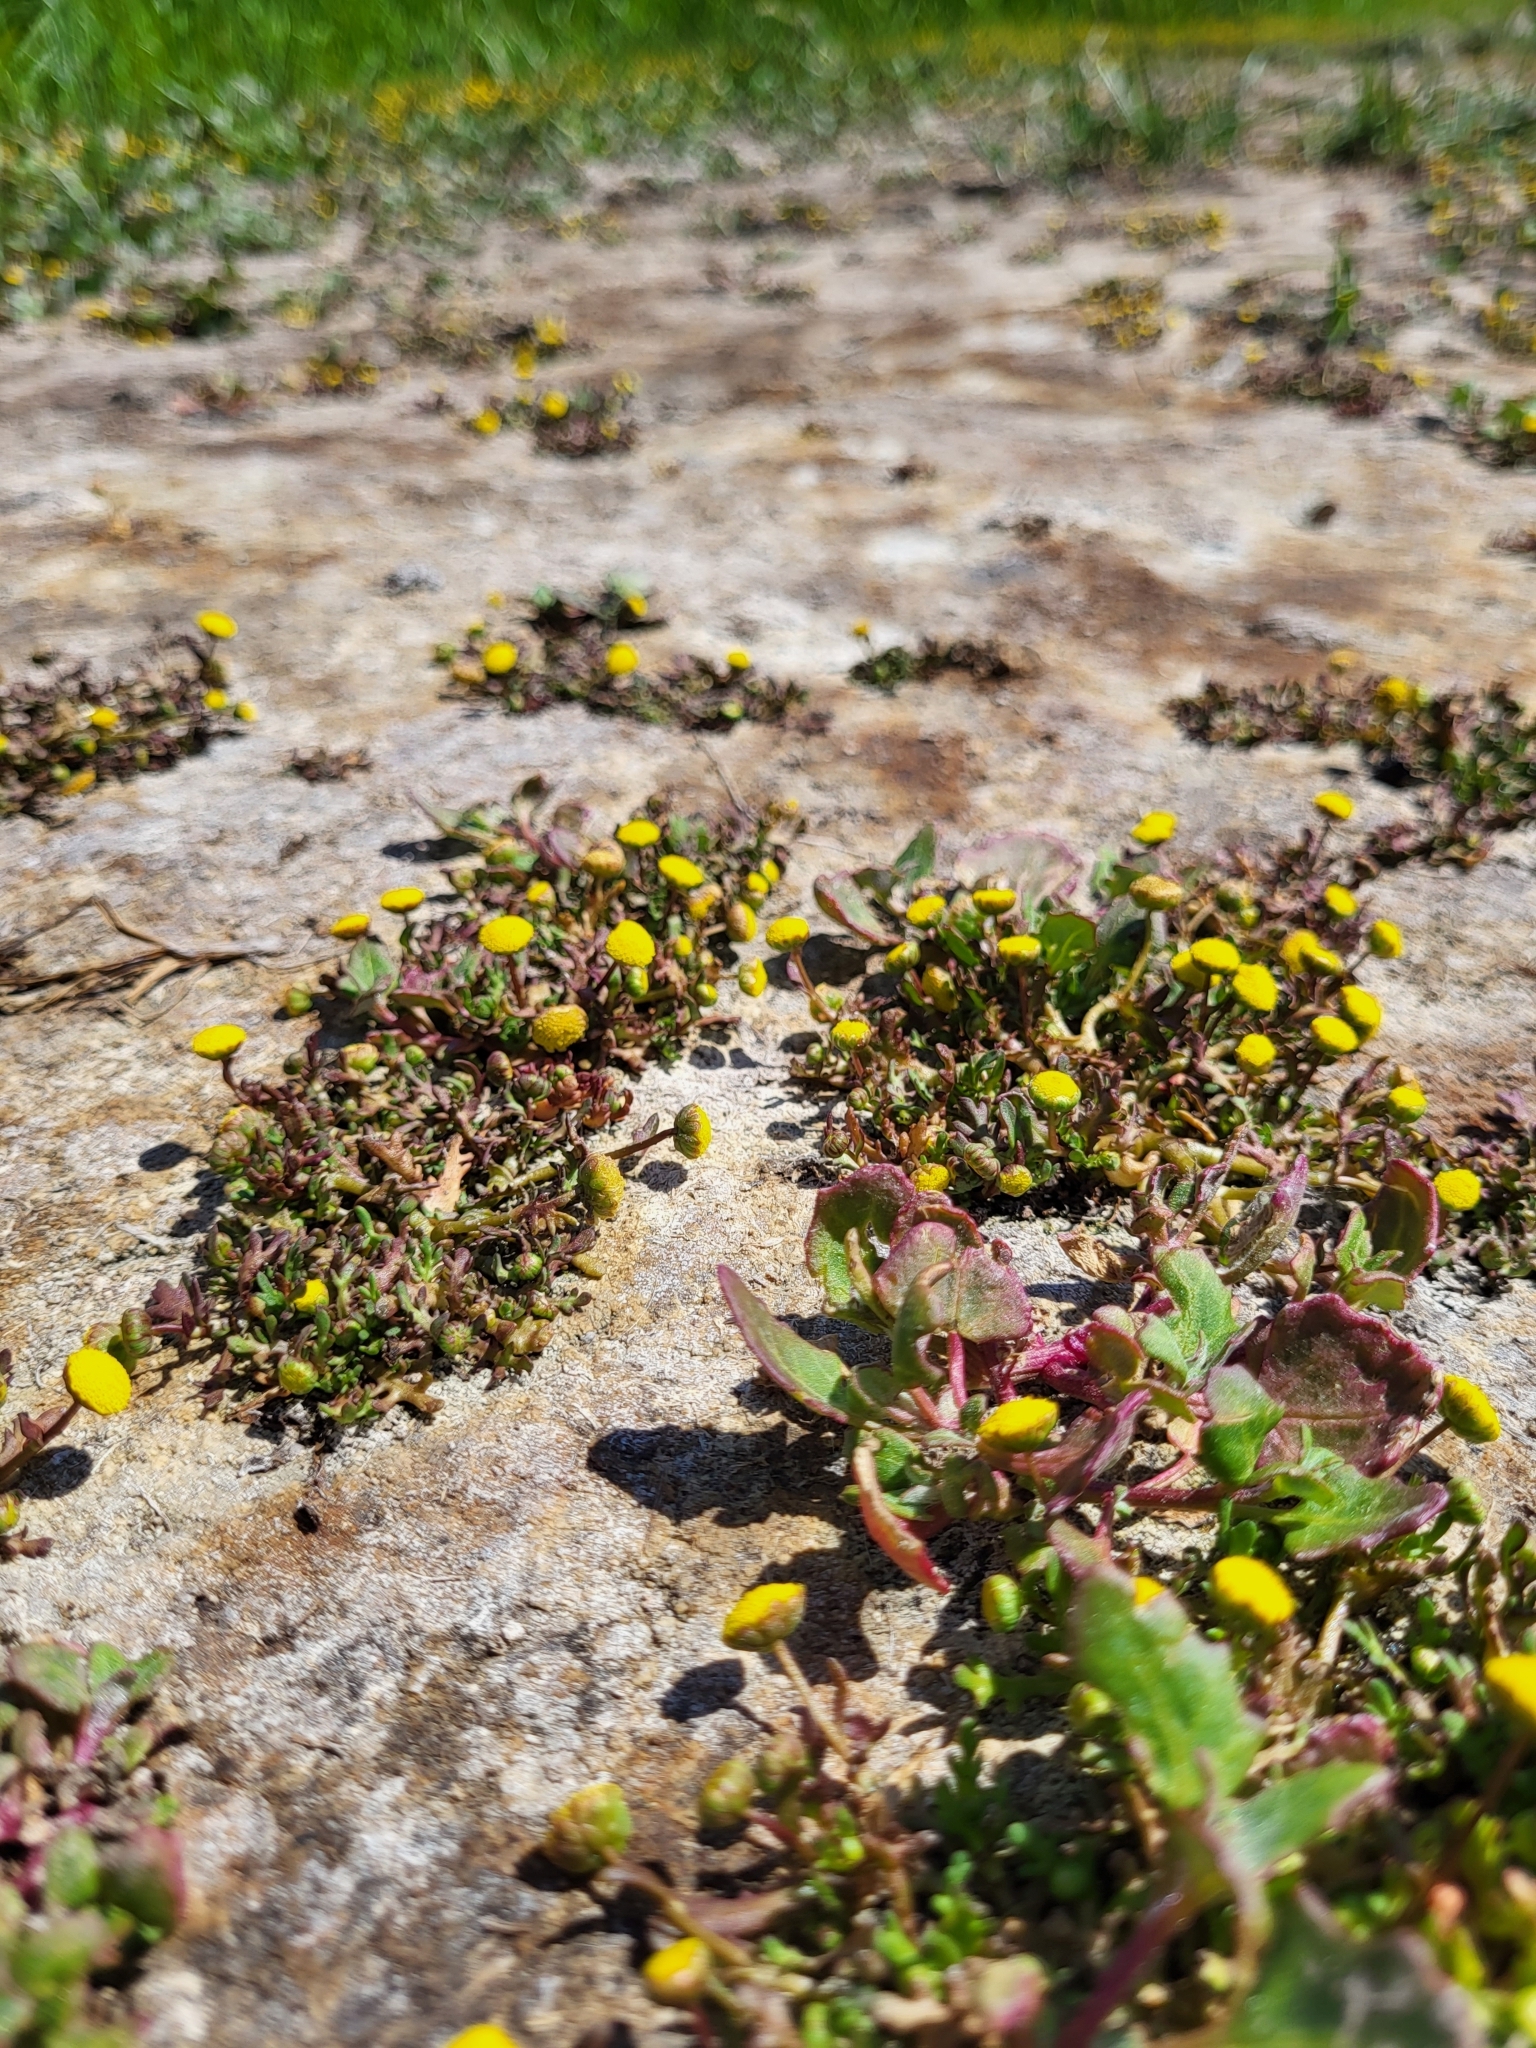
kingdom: Plantae
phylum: Tracheophyta
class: Magnoliopsida
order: Asterales
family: Asteraceae
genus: Cotula
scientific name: Cotula coronopifolia
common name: Buttonweed
